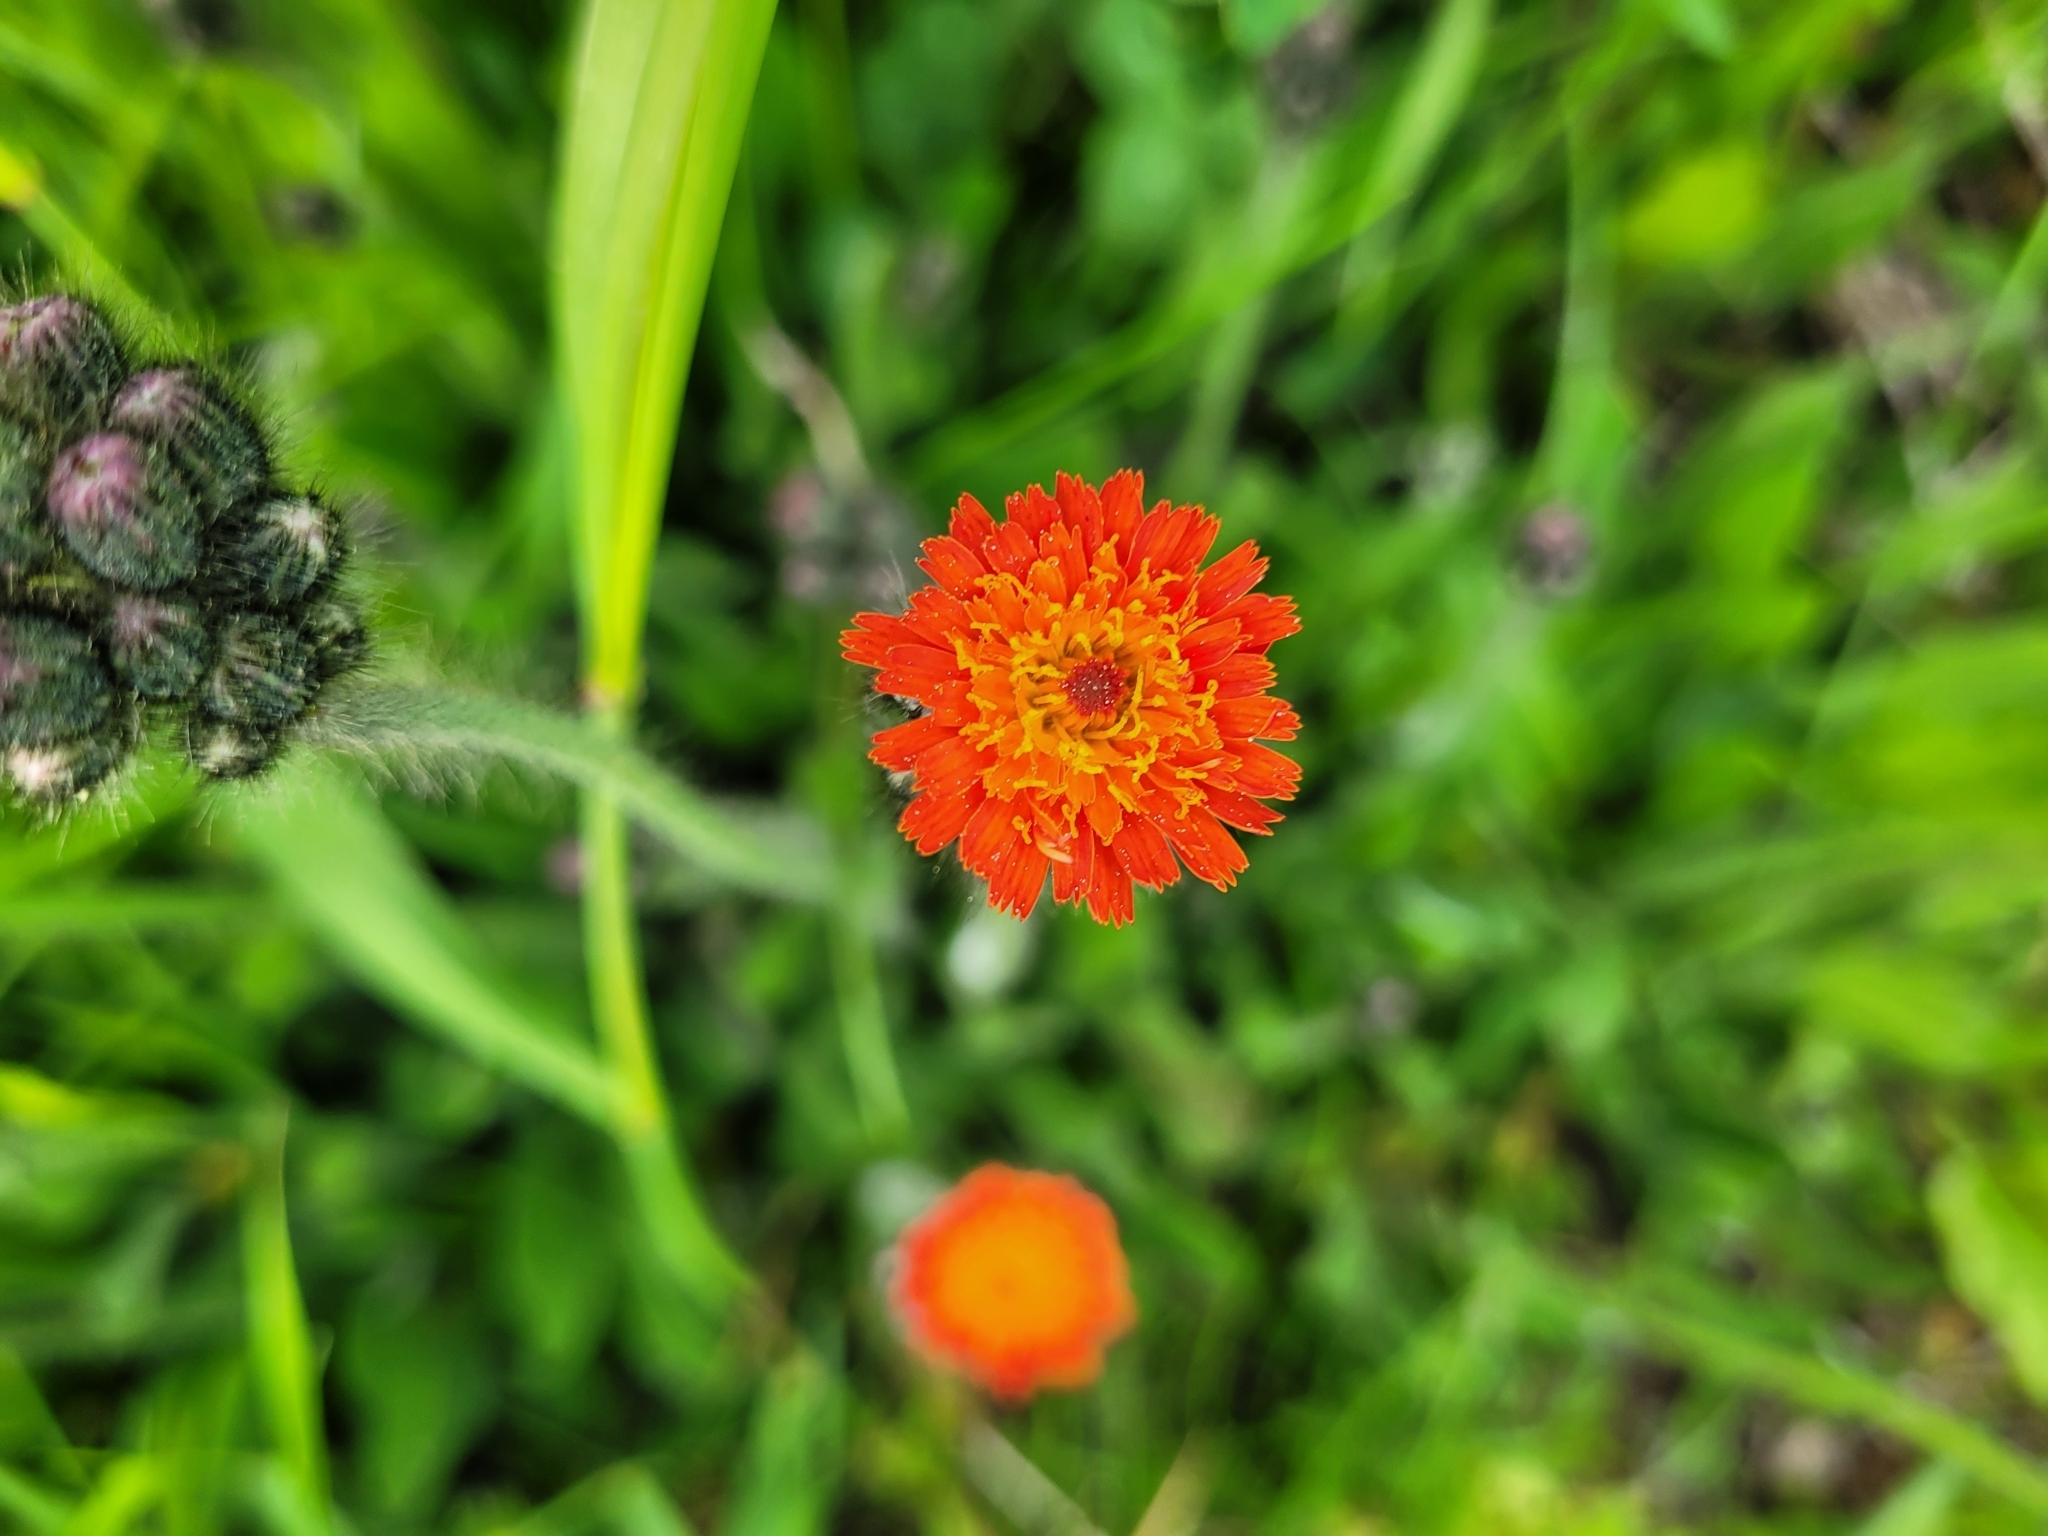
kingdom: Plantae
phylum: Tracheophyta
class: Magnoliopsida
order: Asterales
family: Asteraceae
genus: Pilosella
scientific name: Pilosella aurantiaca
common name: Fox-and-cubs
